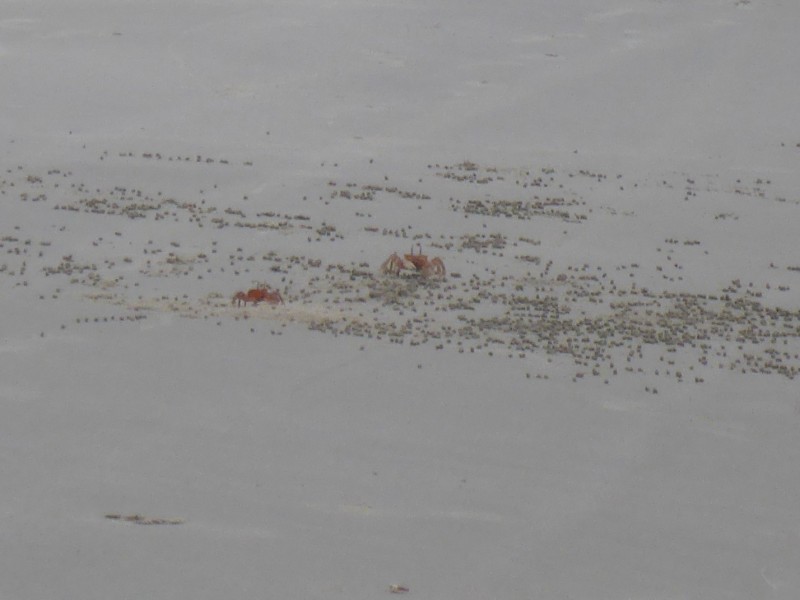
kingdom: Animalia
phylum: Arthropoda
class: Malacostraca
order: Decapoda
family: Ocypodidae
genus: Ocypode
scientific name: Ocypode gaudichaudii
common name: Pacific ghost crab
